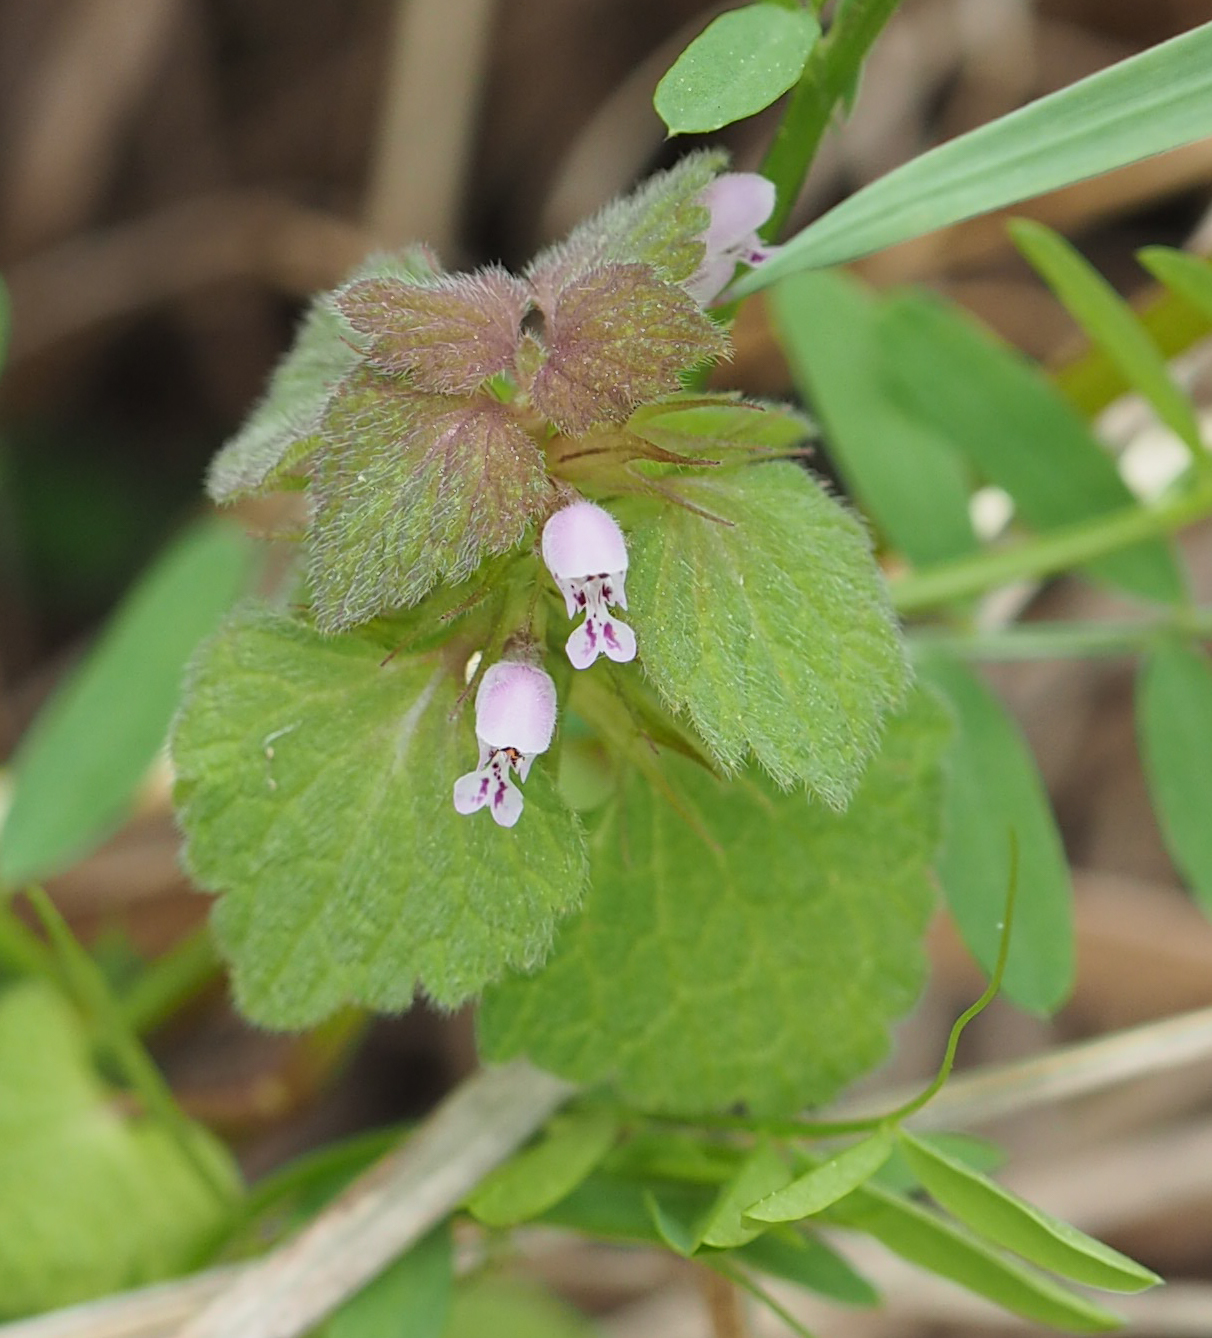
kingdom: Plantae
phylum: Tracheophyta
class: Magnoliopsida
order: Lamiales
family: Lamiaceae
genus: Lamium
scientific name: Lamium purpureum
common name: Red dead-nettle
